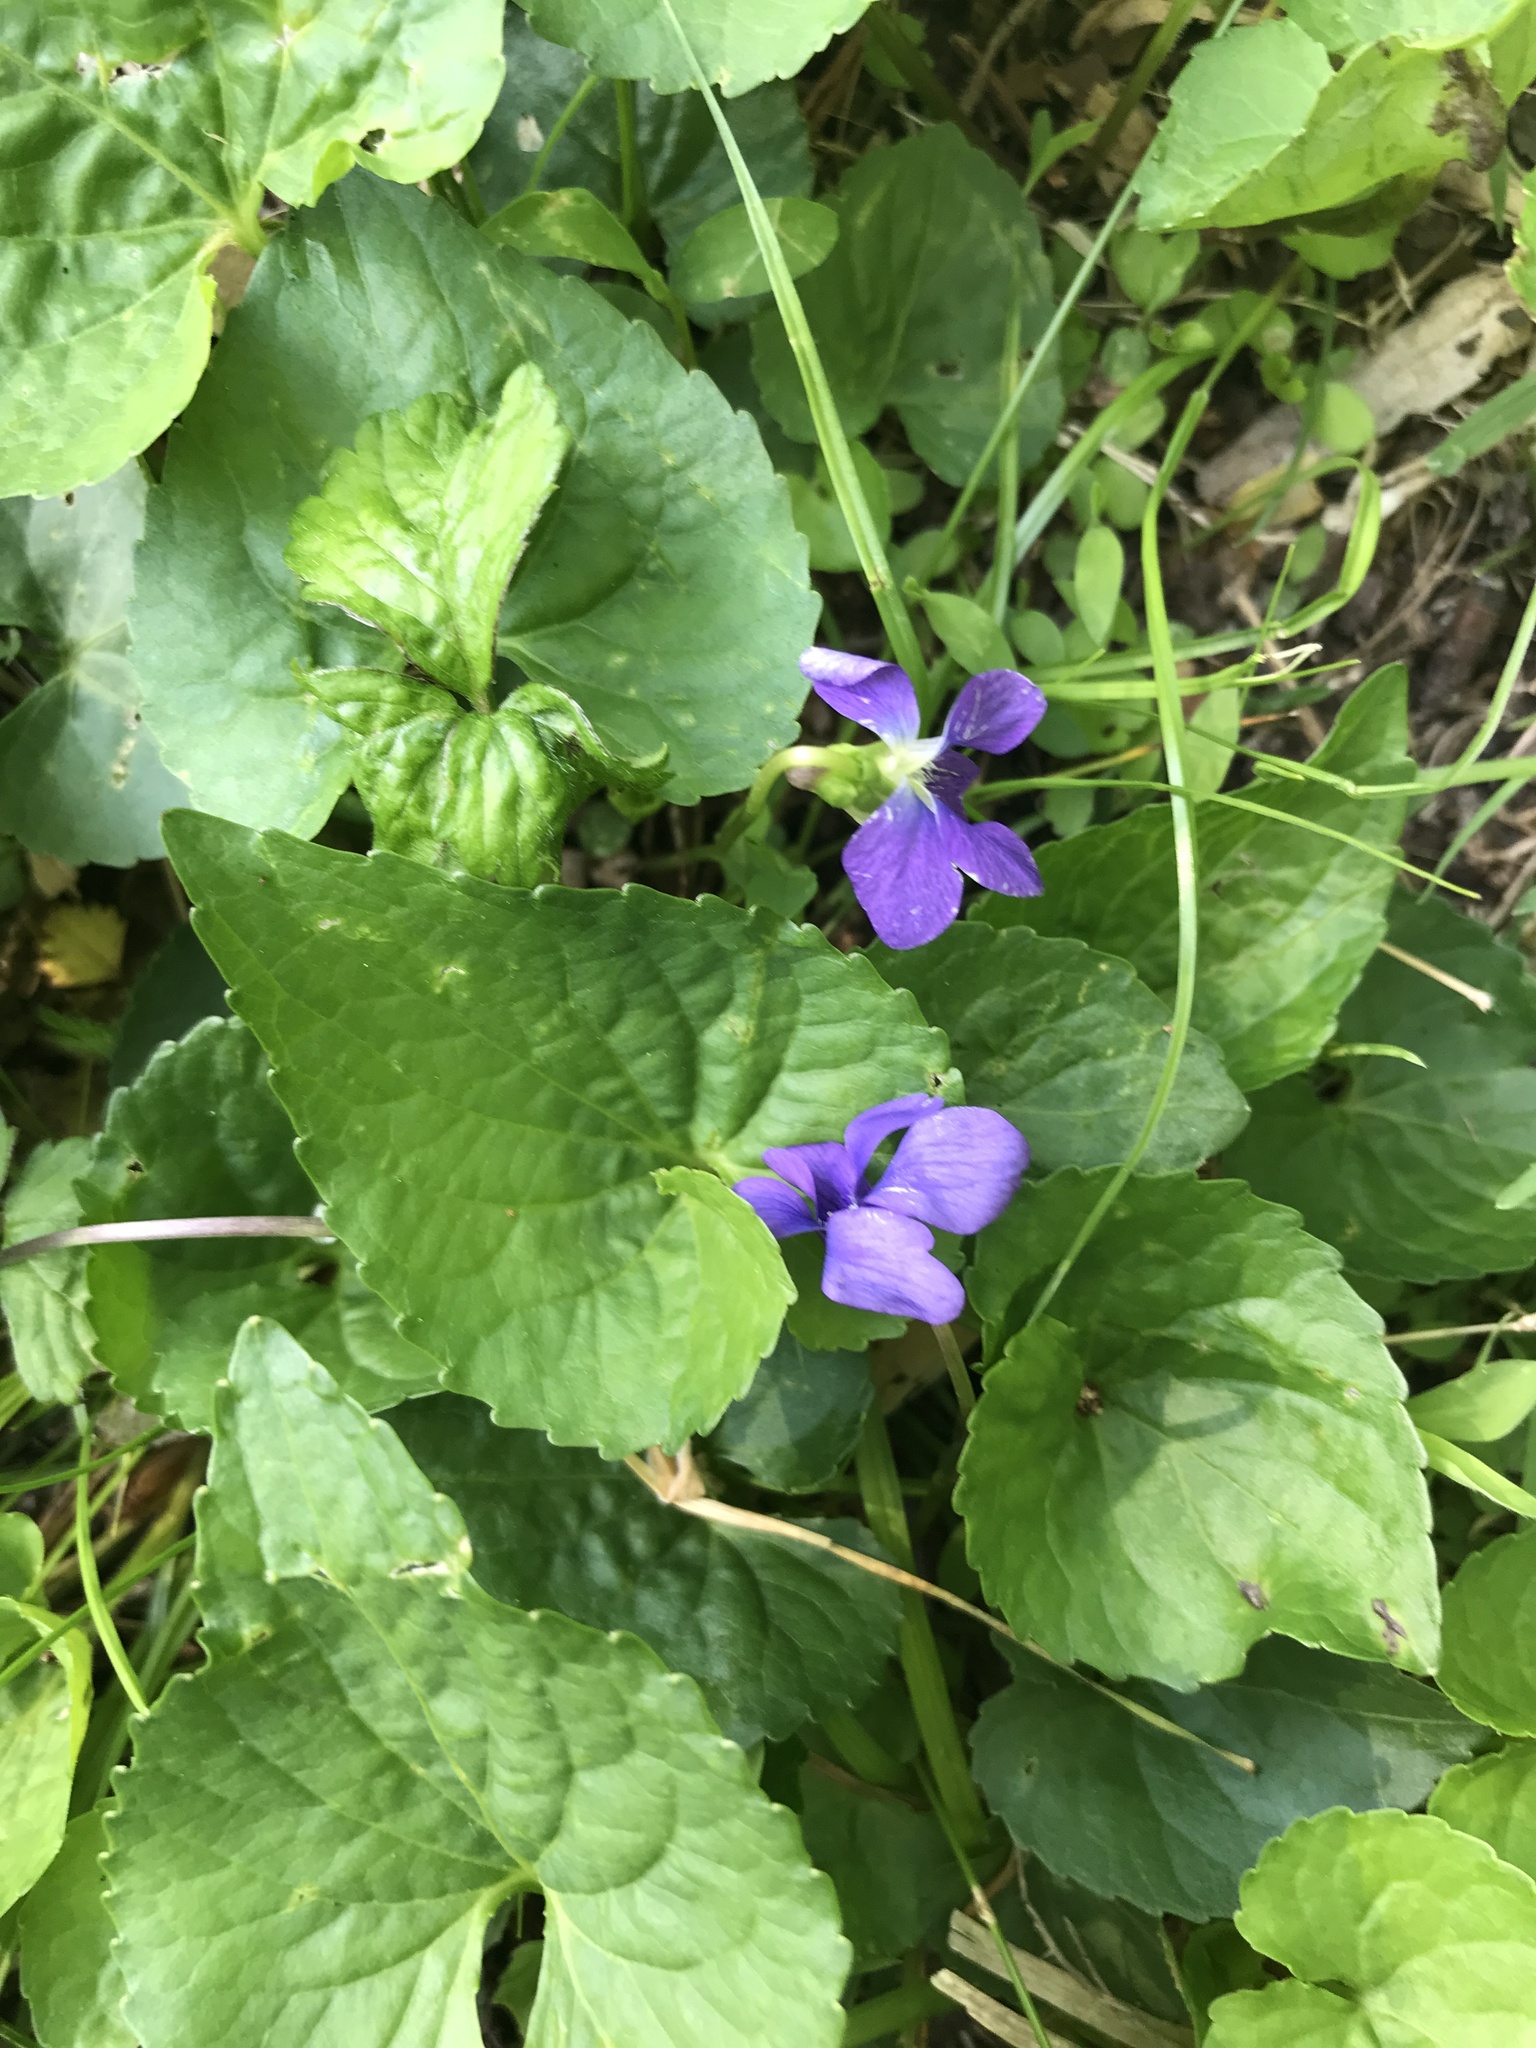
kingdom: Plantae
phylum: Tracheophyta
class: Magnoliopsida
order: Malpighiales
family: Violaceae
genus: Viola
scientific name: Viola sororia
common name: Dooryard violet
